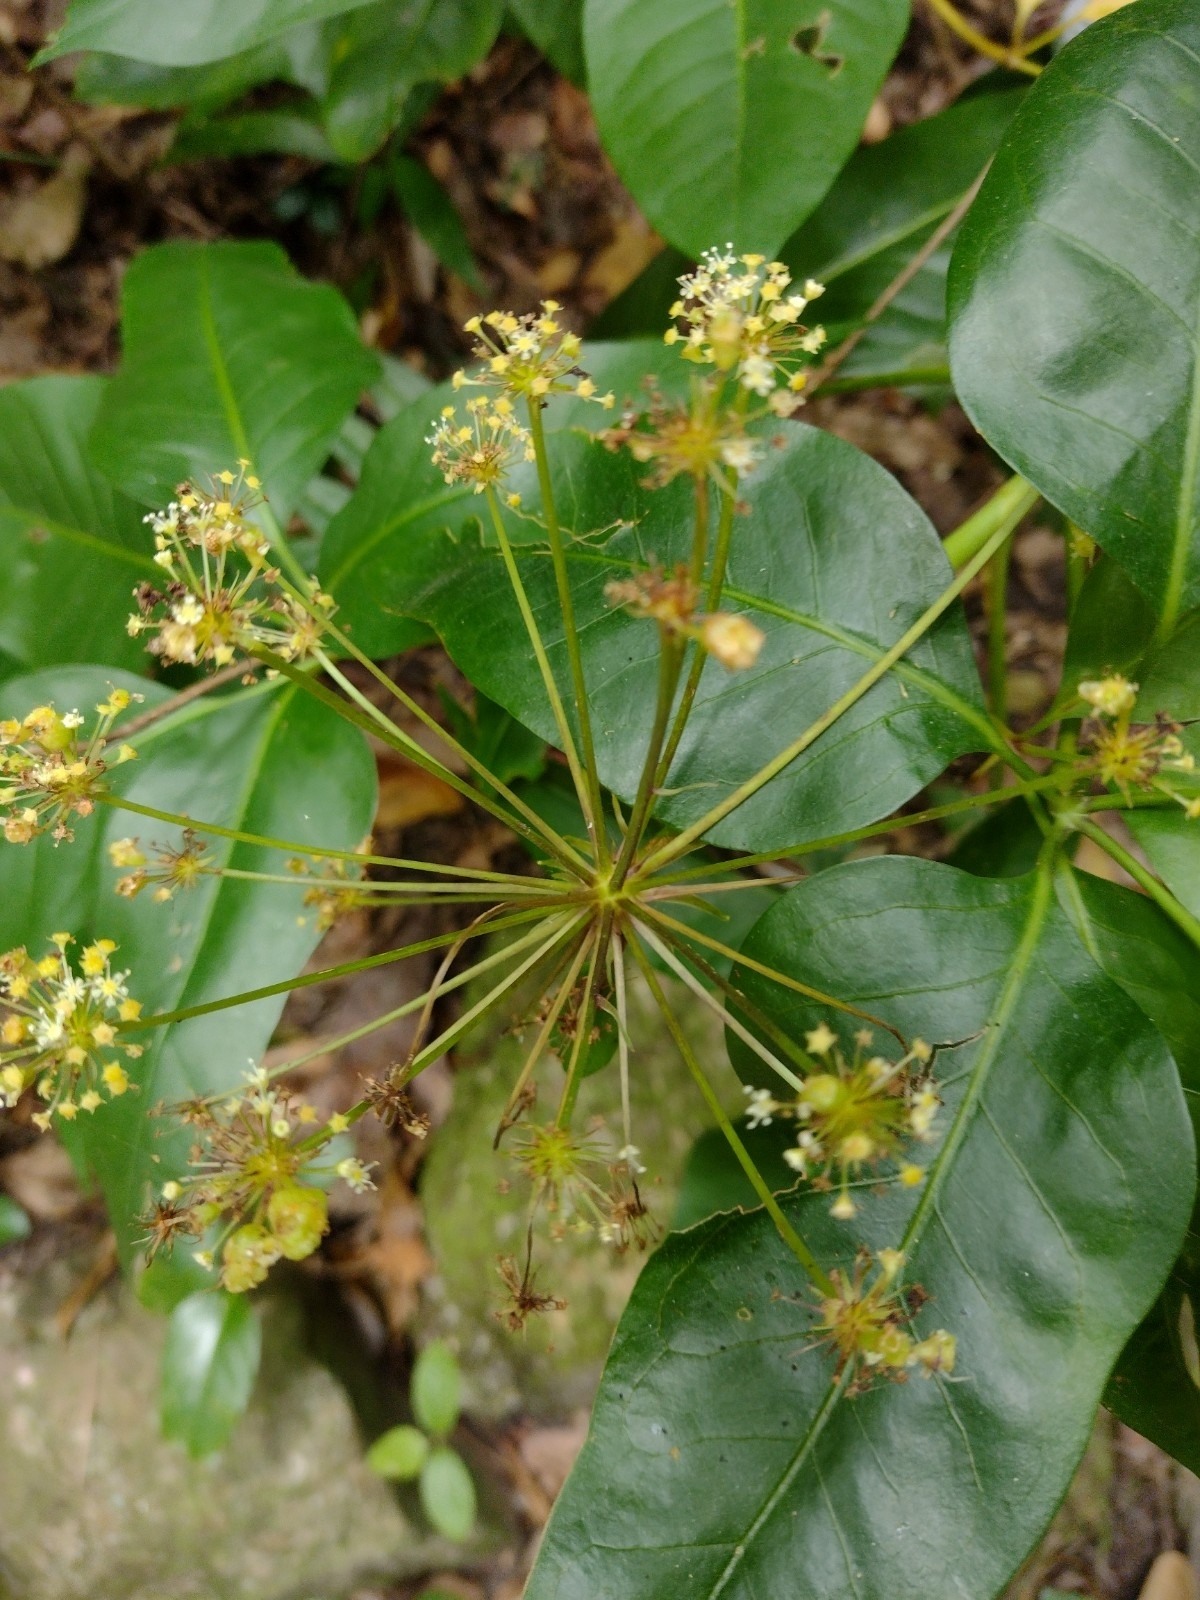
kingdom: Plantae
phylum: Tracheophyta
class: Magnoliopsida
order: Apiales
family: Apiaceae
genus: Mackinlaya
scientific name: Mackinlaya macrosciadea
